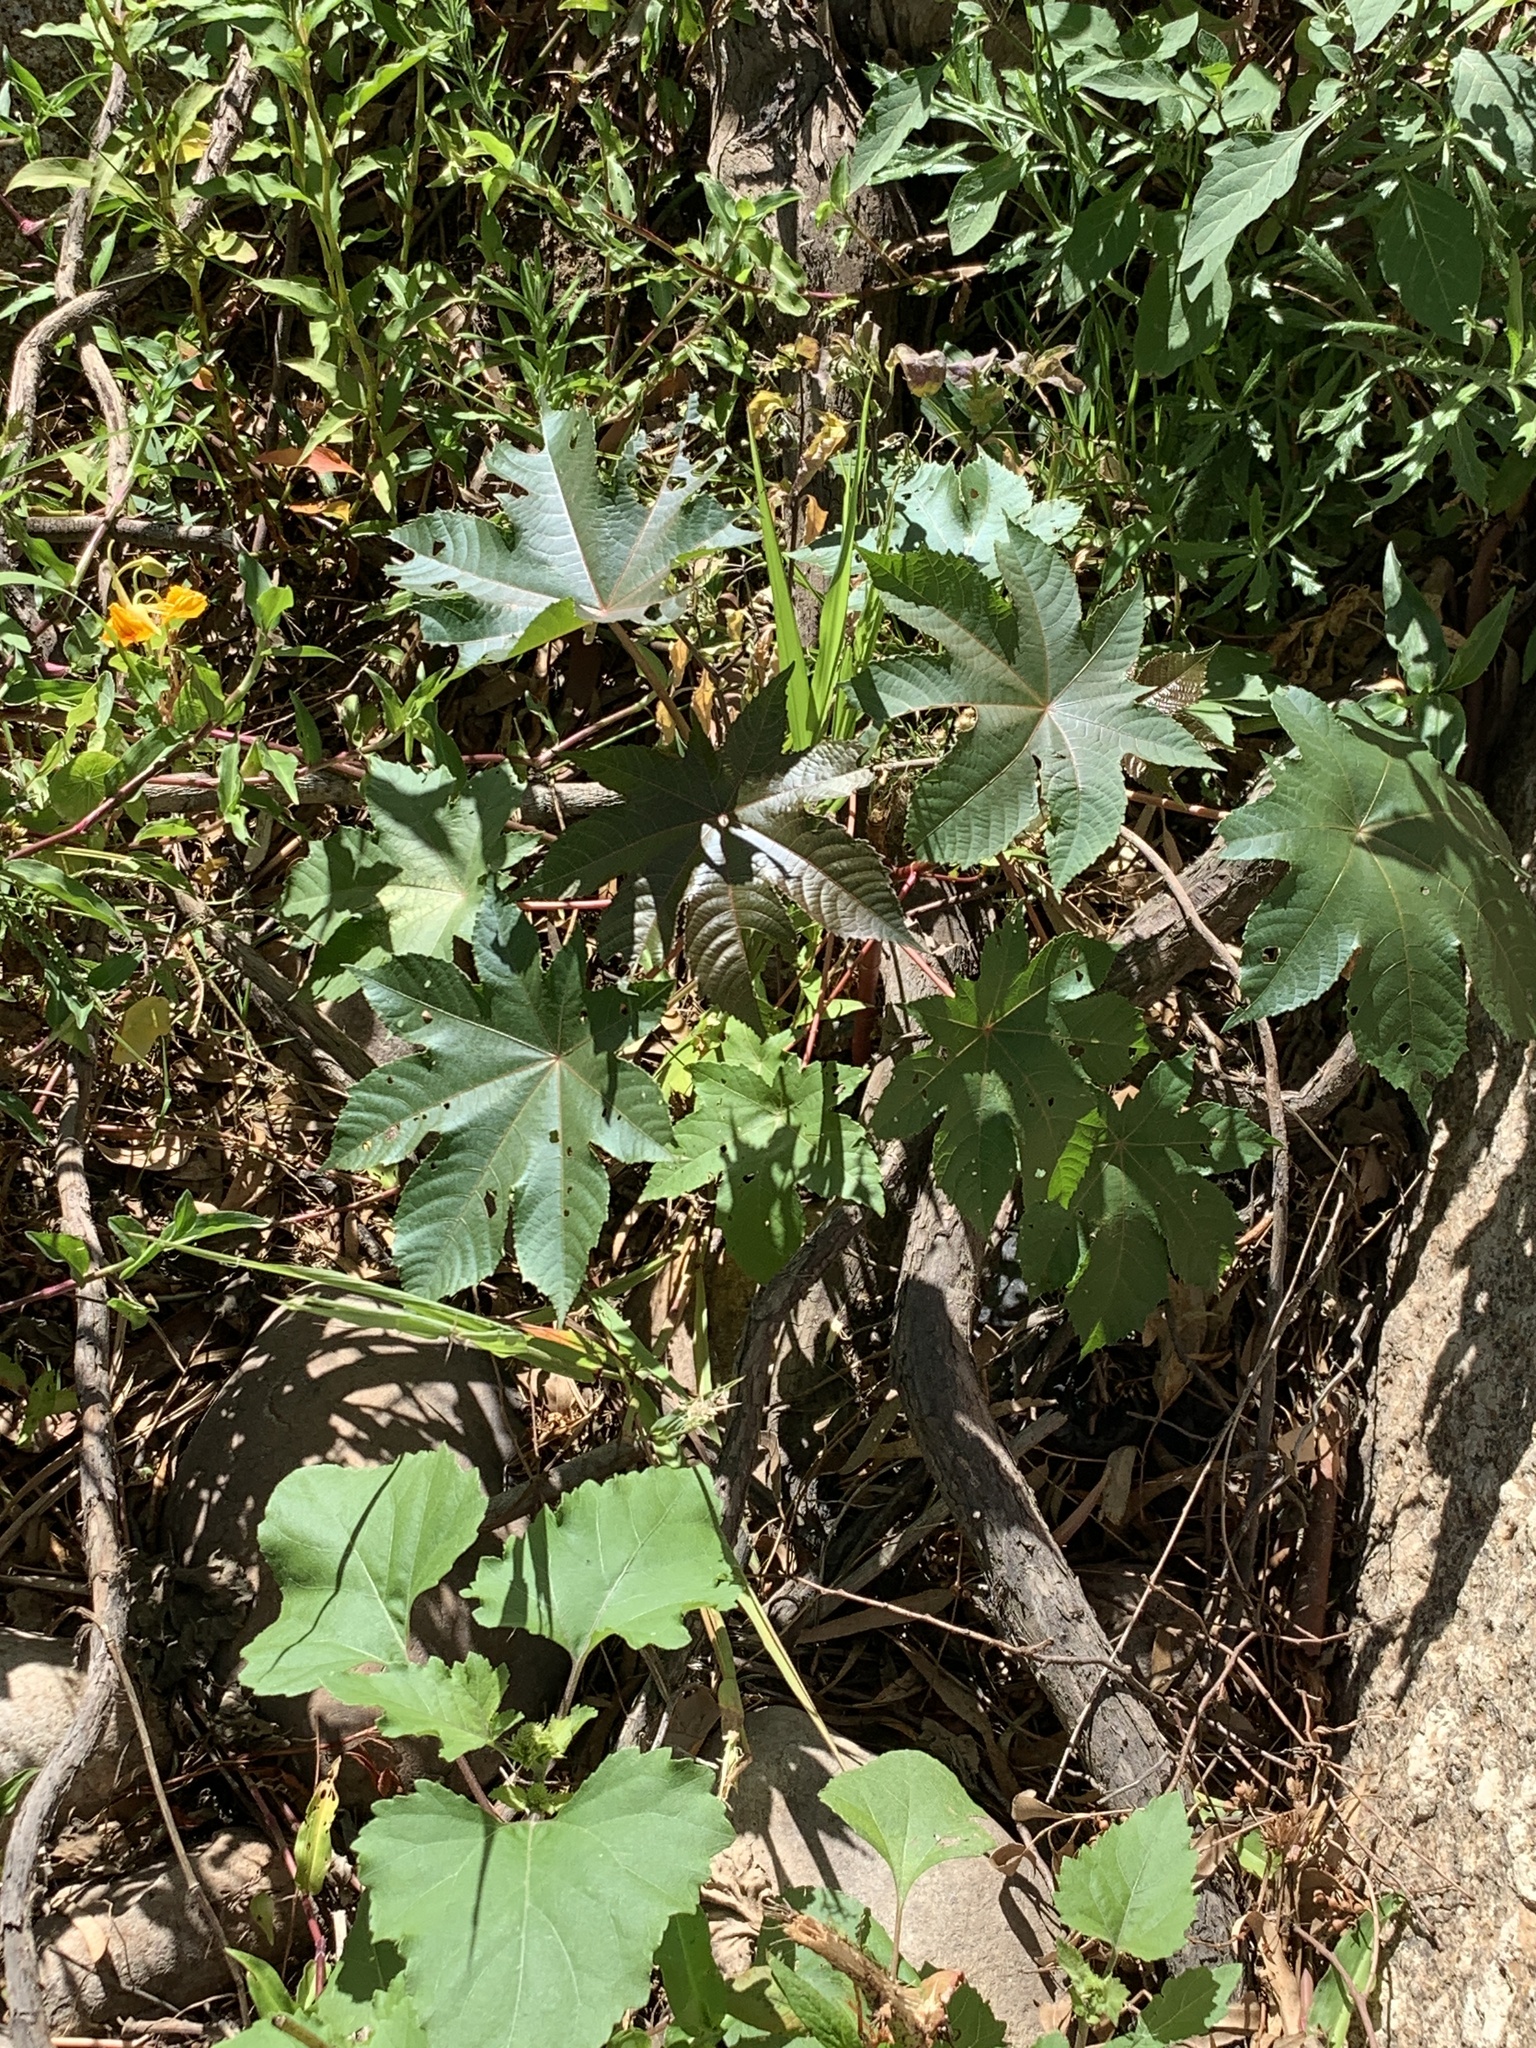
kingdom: Plantae
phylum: Tracheophyta
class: Magnoliopsida
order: Malpighiales
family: Euphorbiaceae
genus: Ricinus
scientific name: Ricinus communis
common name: Castor-oil-plant
